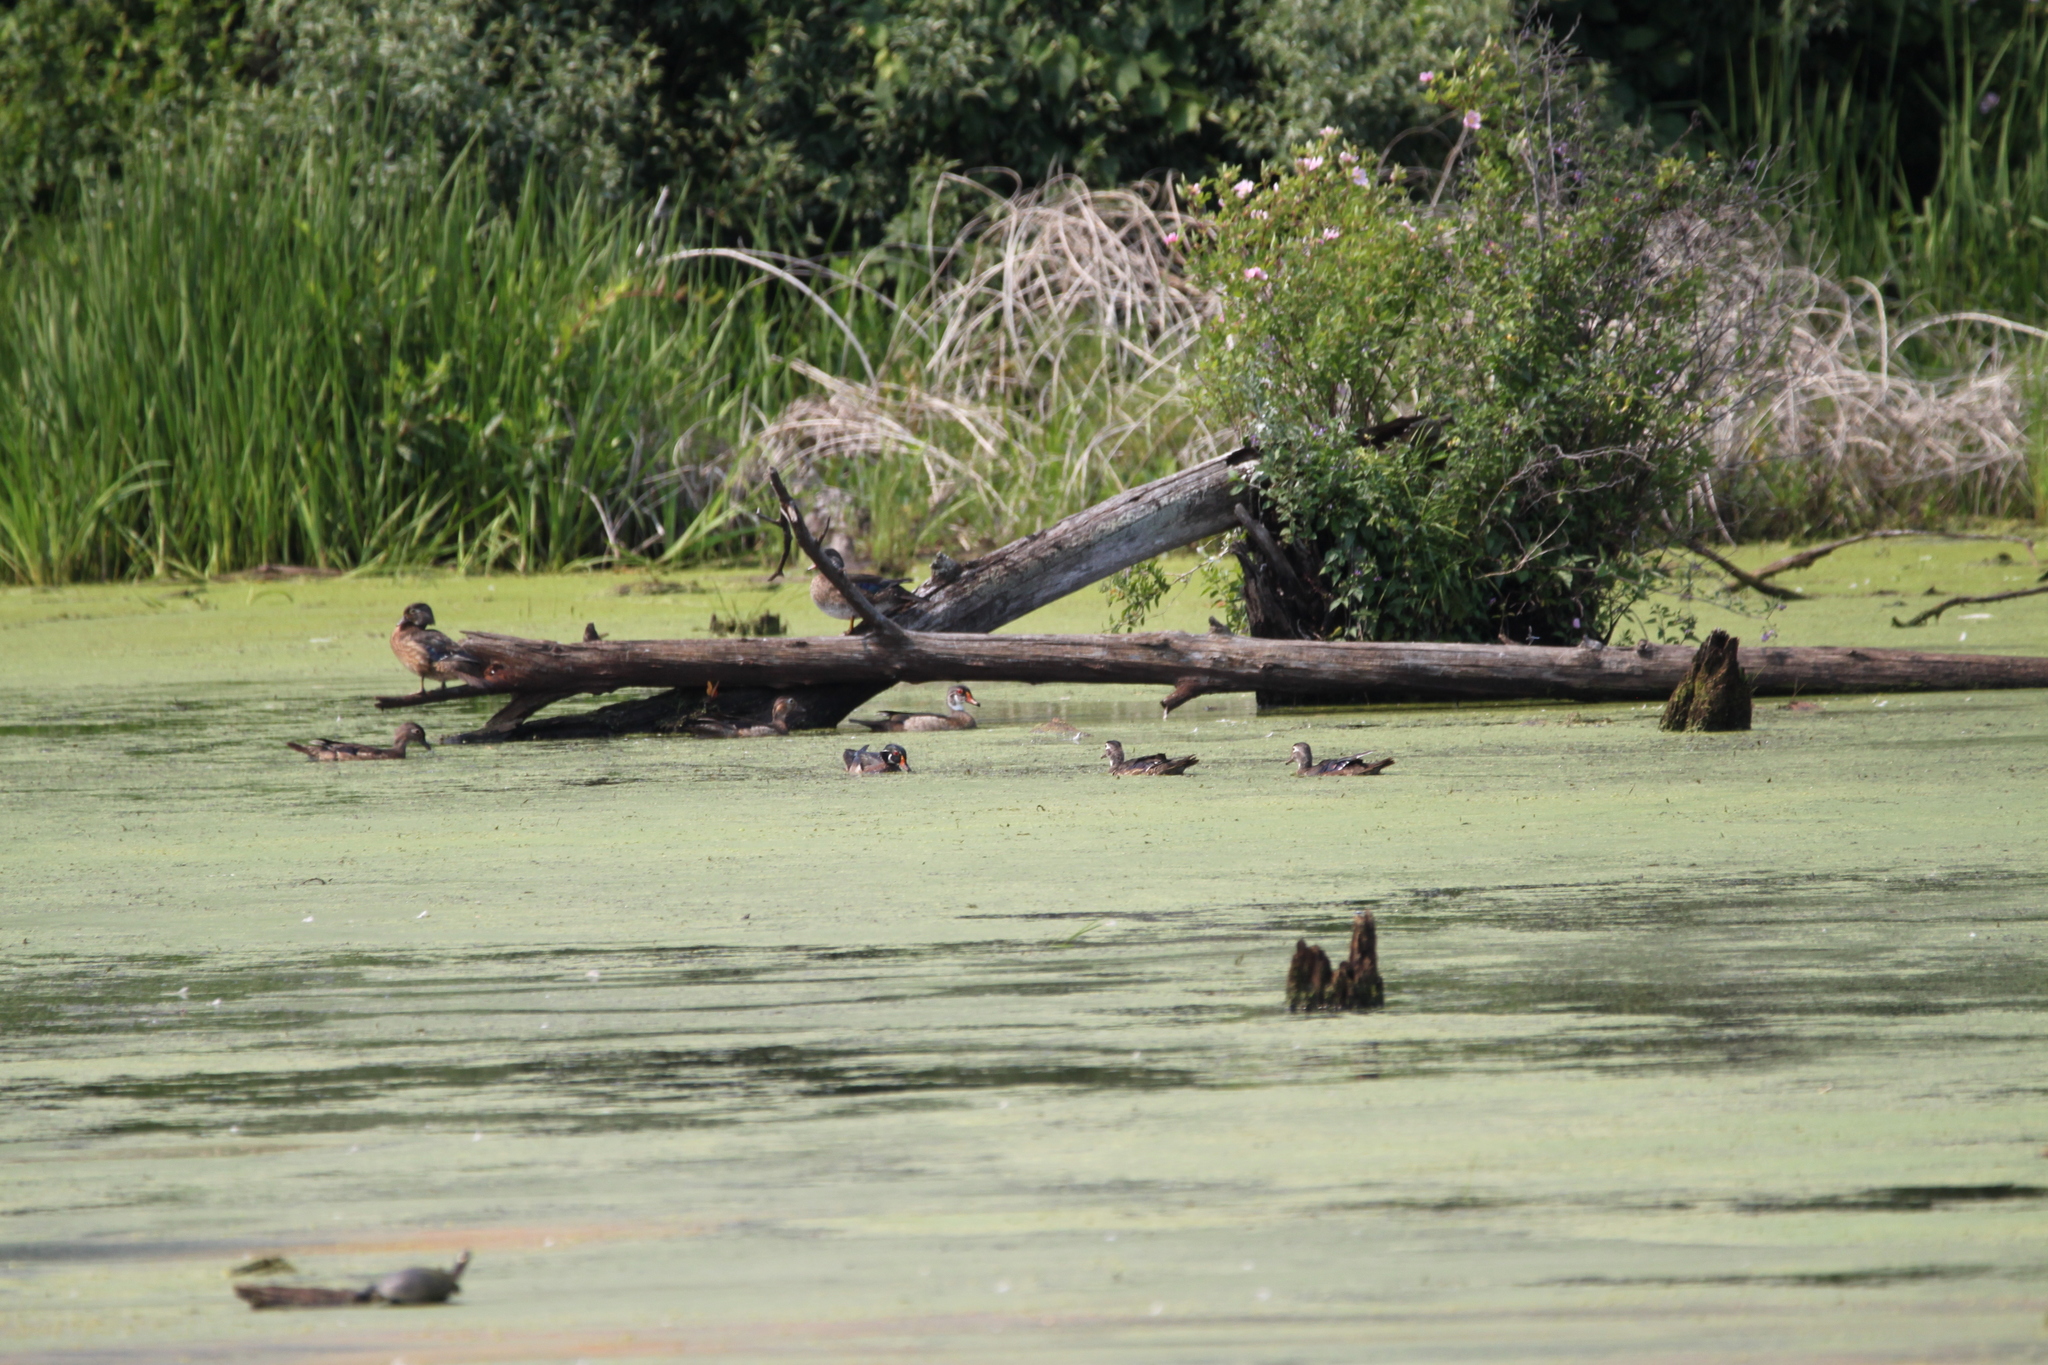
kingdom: Animalia
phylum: Chordata
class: Aves
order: Anseriformes
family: Anatidae
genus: Aix
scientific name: Aix sponsa
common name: Wood duck
